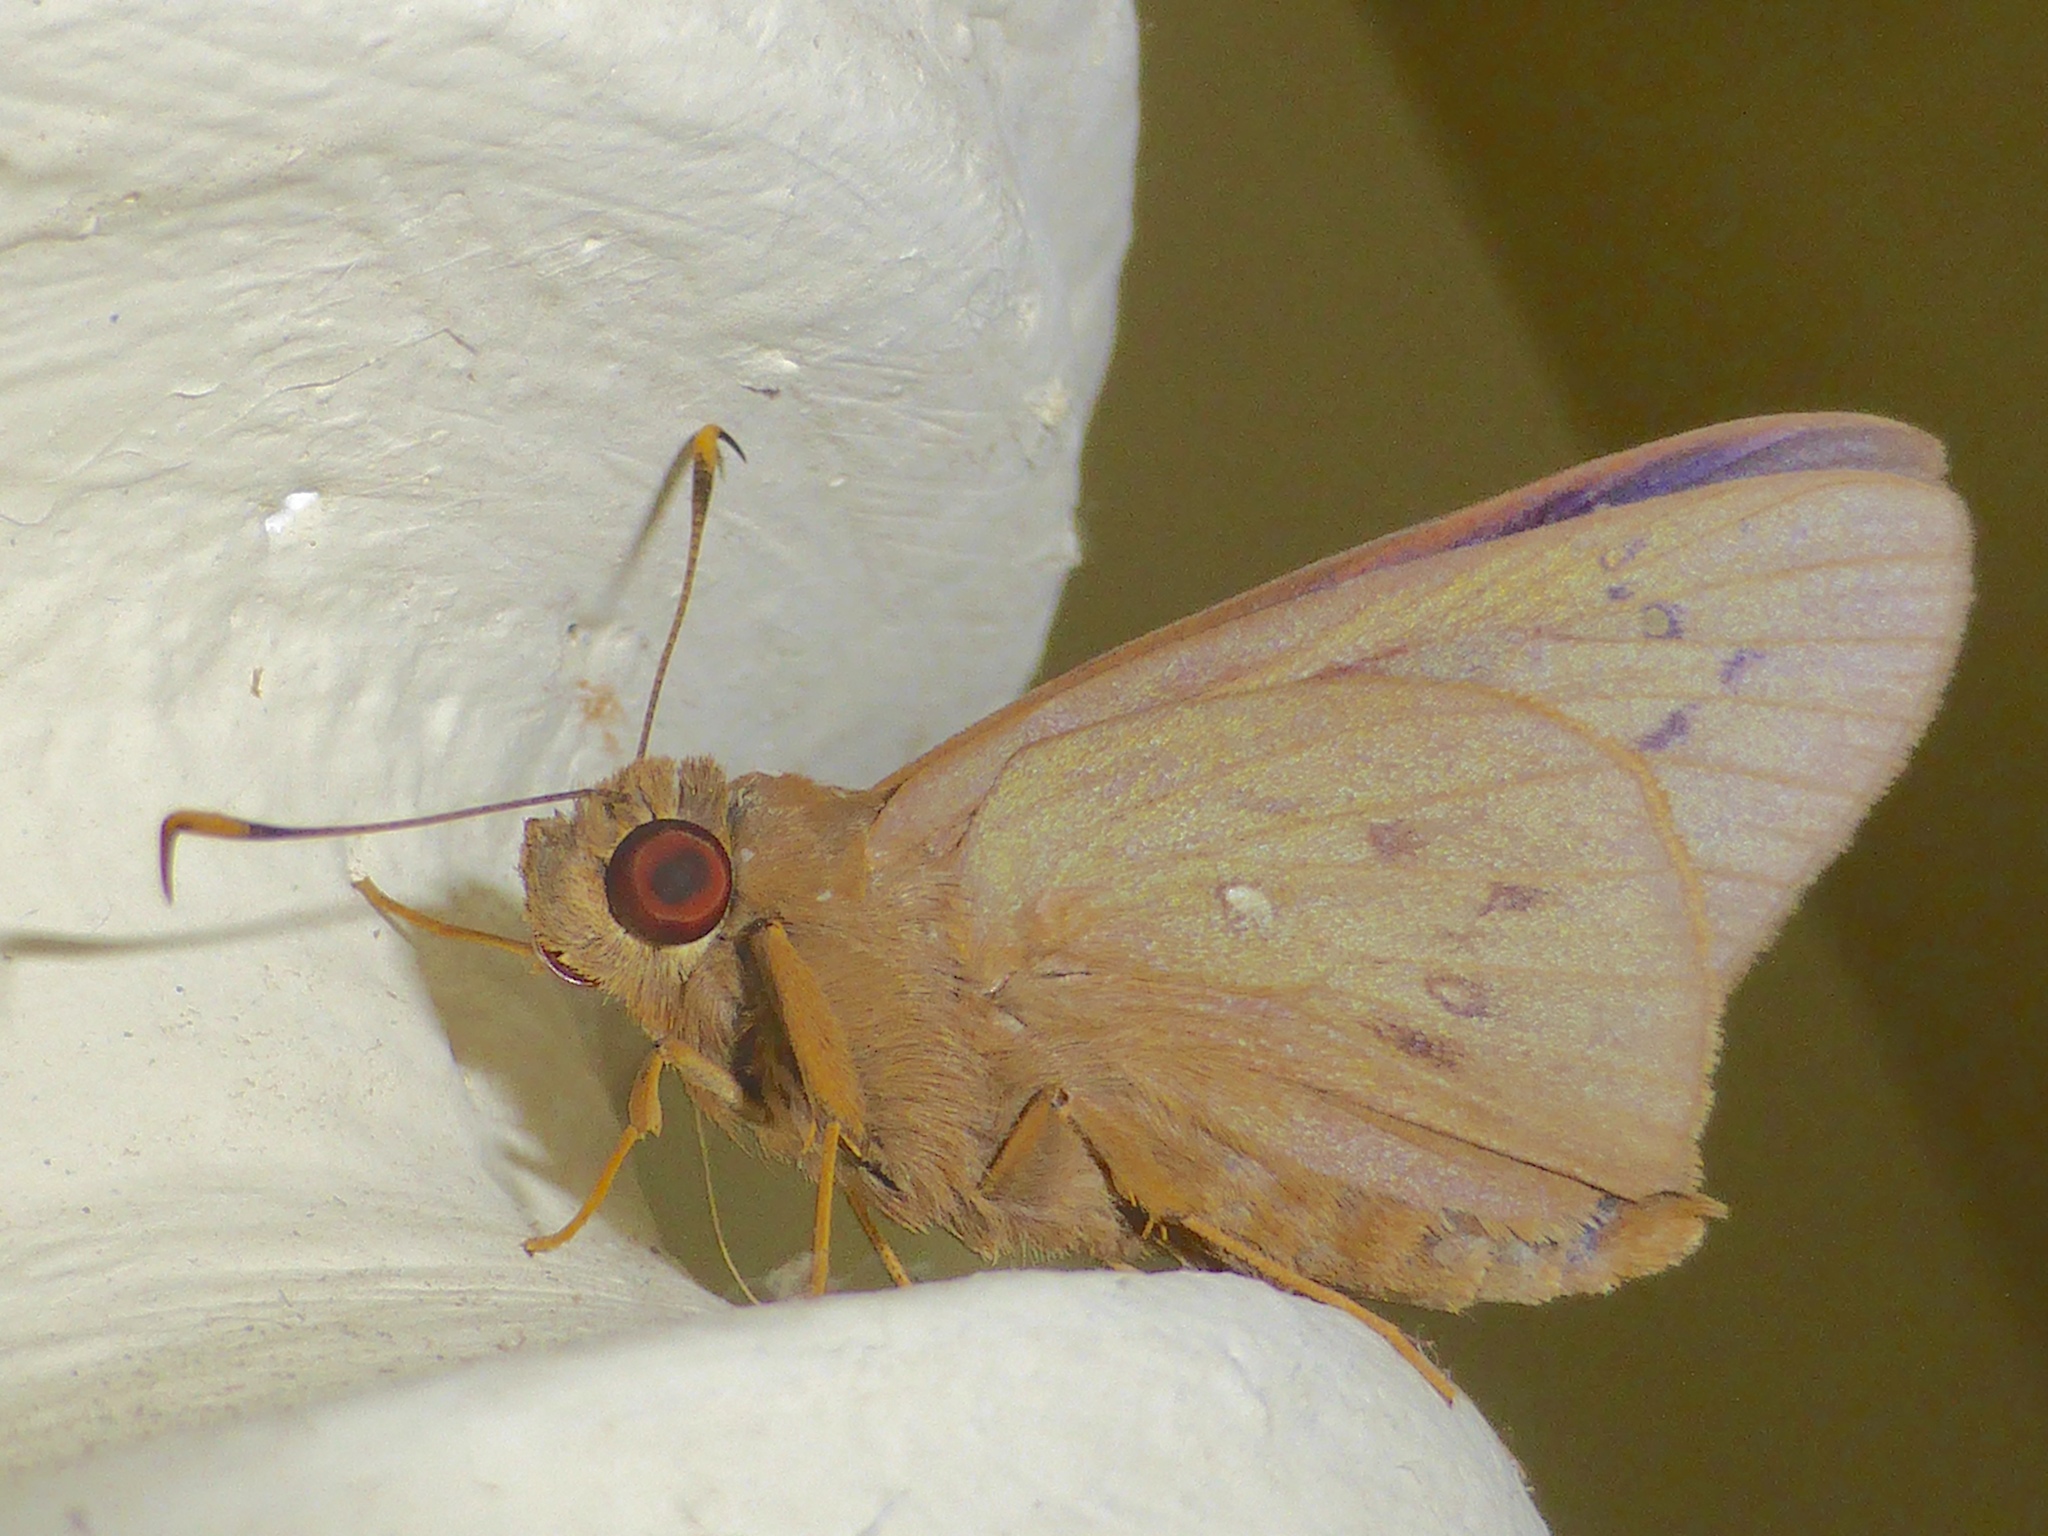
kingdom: Animalia
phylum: Arthropoda
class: Insecta
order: Lepidoptera
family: Hesperiidae
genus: Hidari
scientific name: Hidari irava
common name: Coconut skipper
